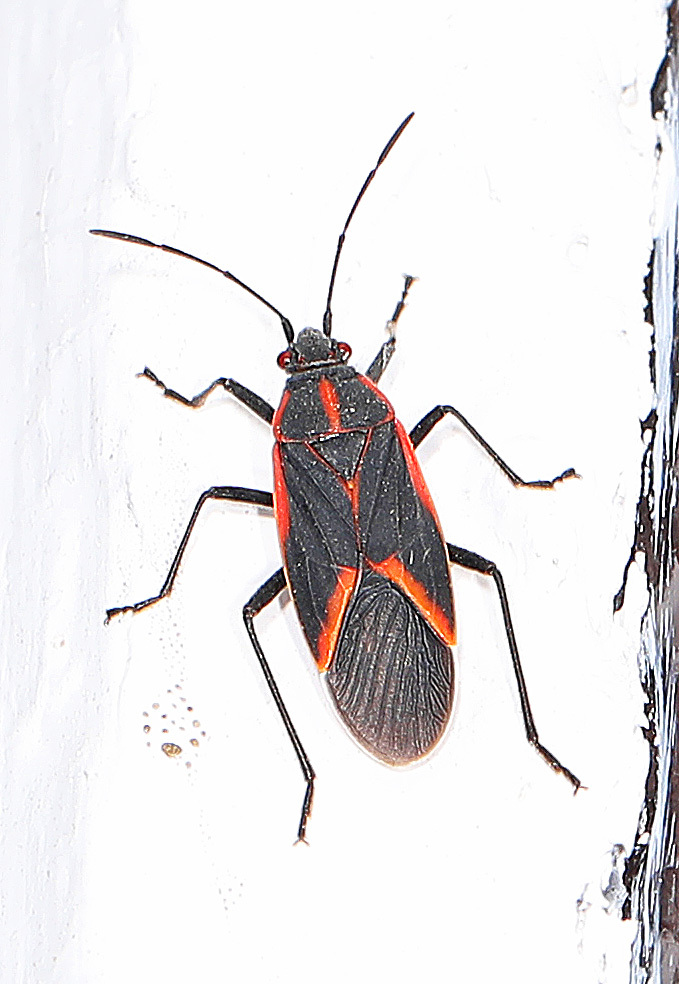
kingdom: Animalia
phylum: Arthropoda
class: Insecta
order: Hemiptera
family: Rhopalidae
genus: Boisea
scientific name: Boisea trivittata
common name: Boxelder bug
